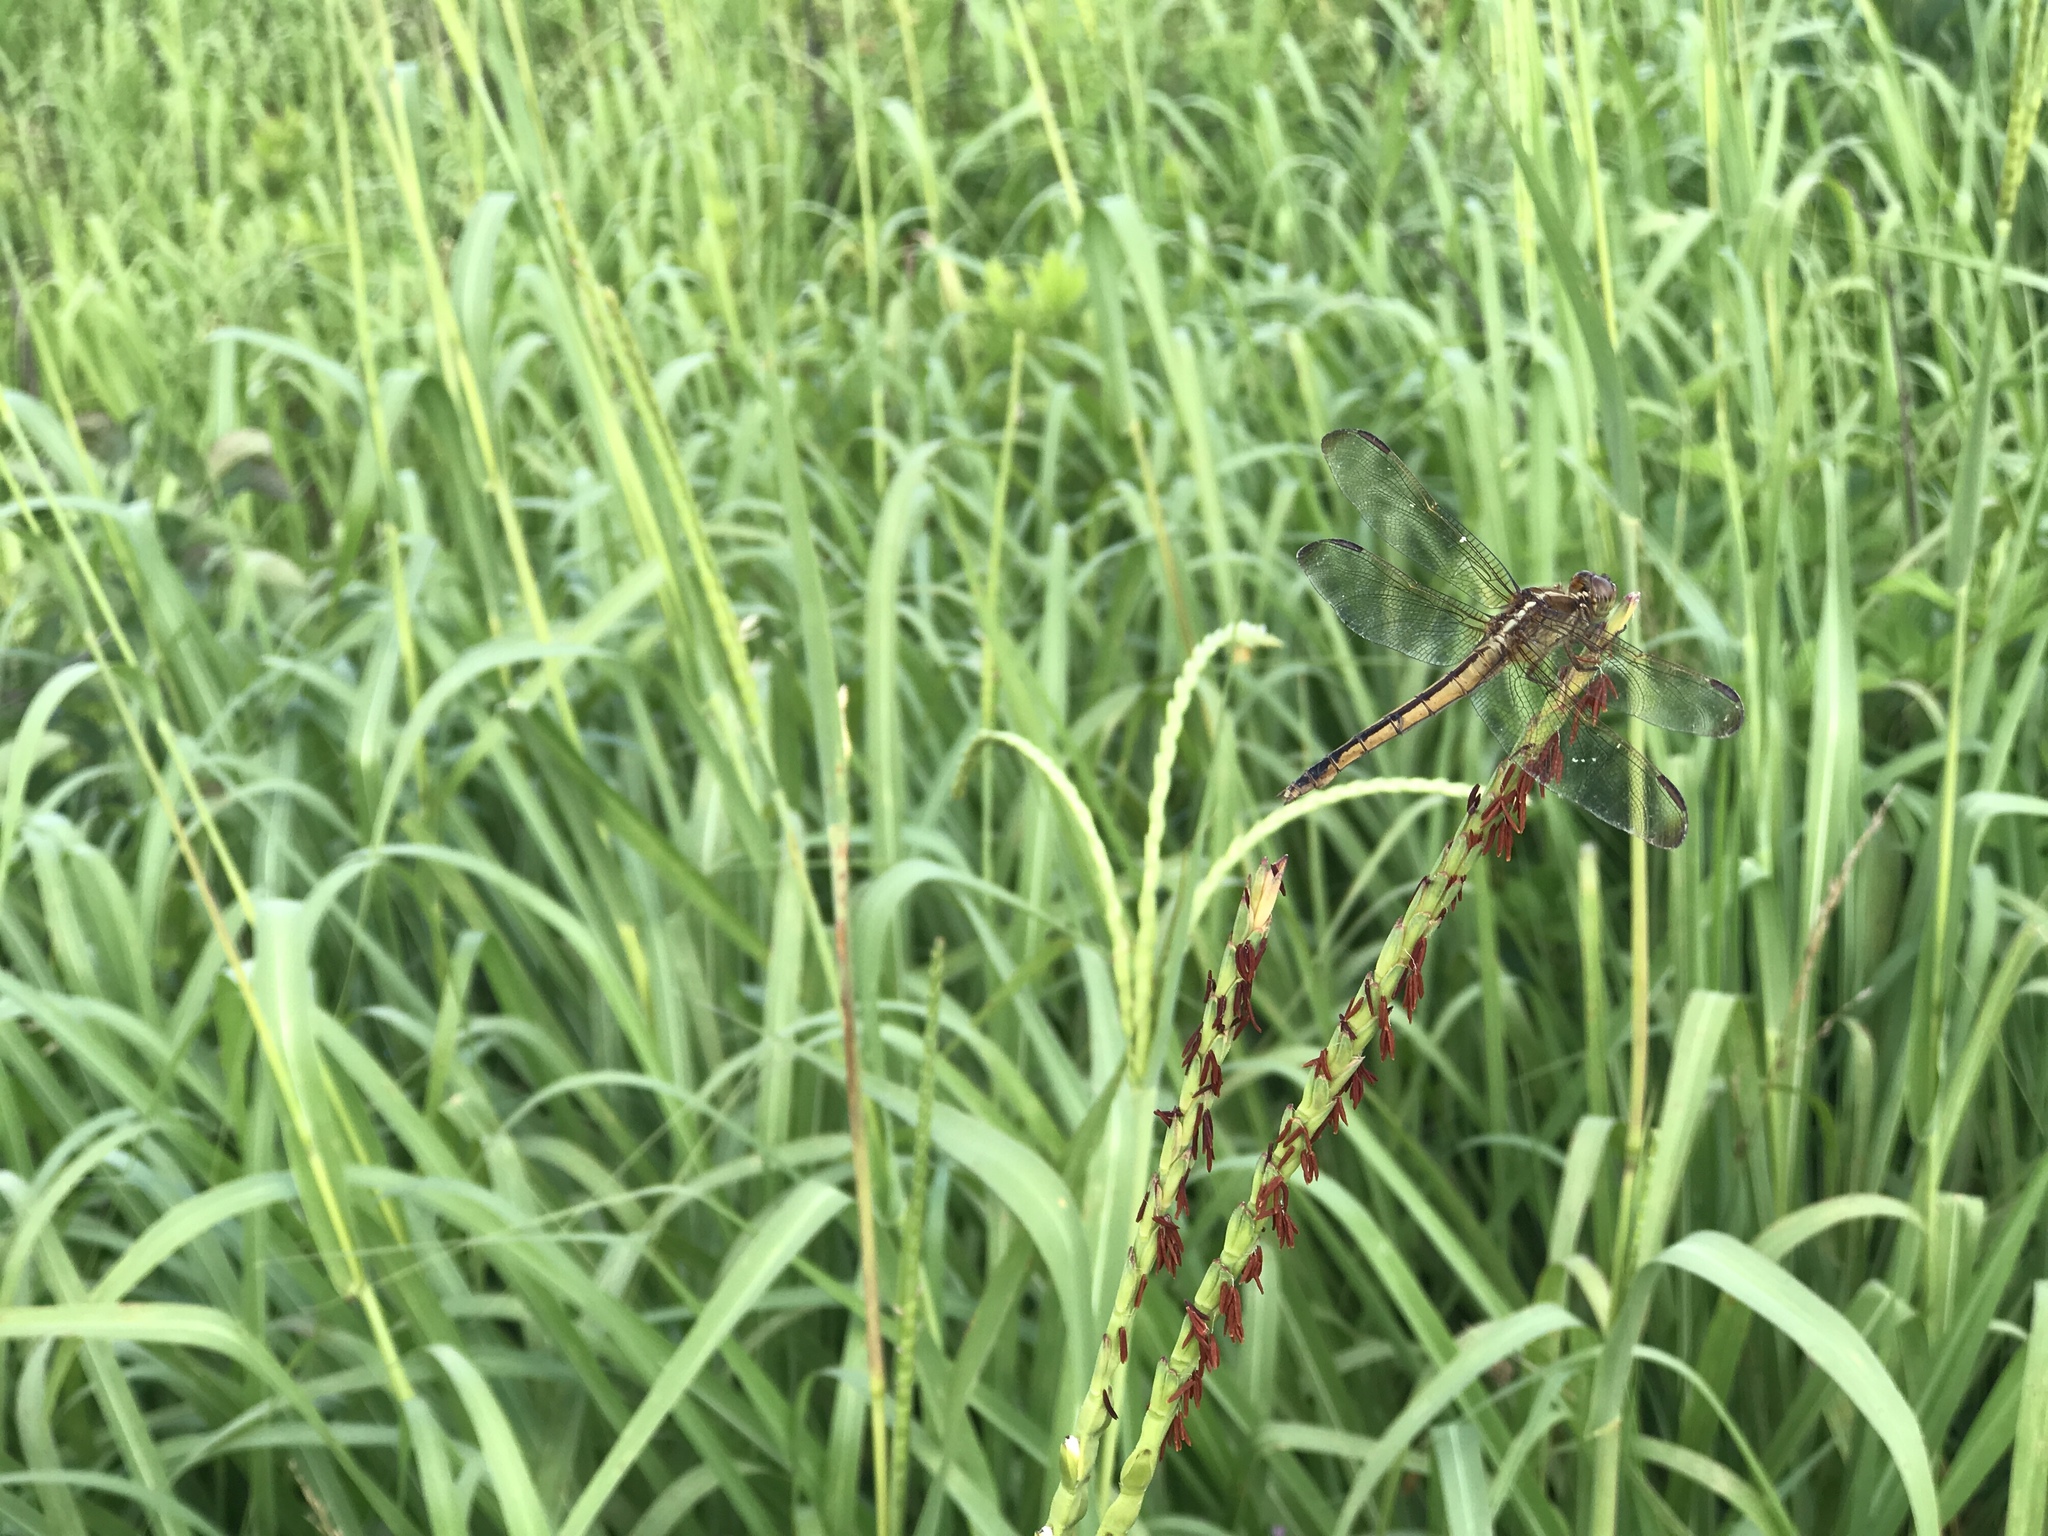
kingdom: Animalia
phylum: Arthropoda
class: Insecta
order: Odonata
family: Libellulidae
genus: Libellula
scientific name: Libellula needhami
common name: Needham's skimmer
